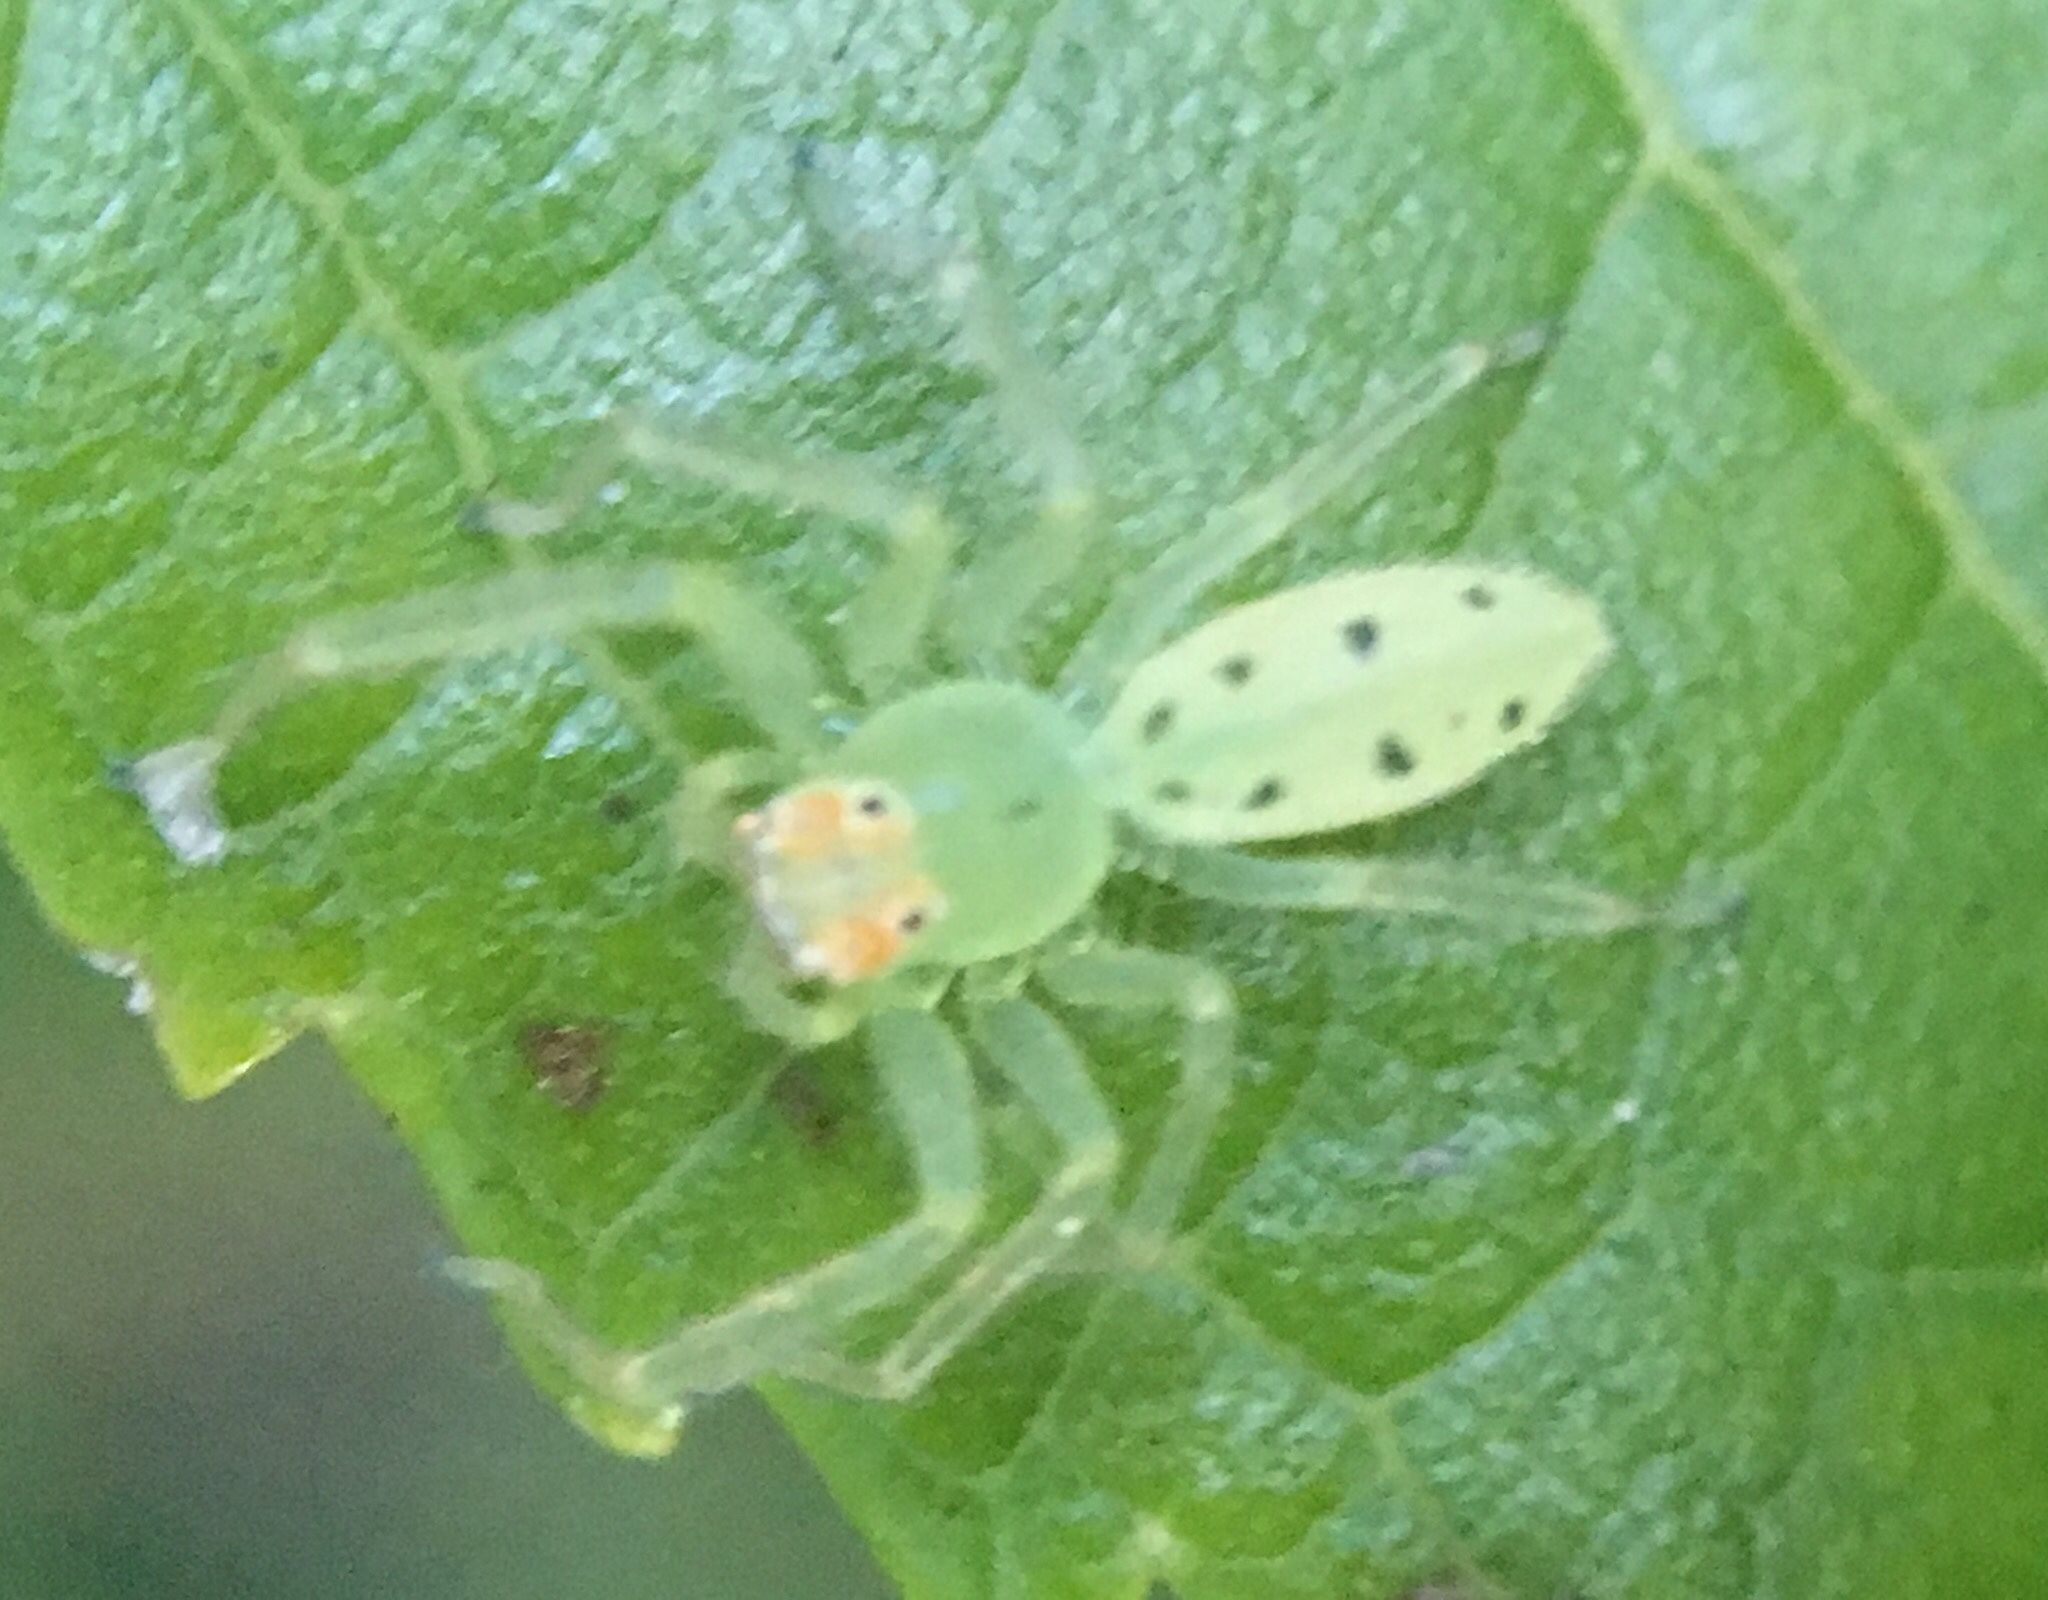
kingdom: Animalia
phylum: Arthropoda
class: Arachnida
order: Araneae
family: Salticidae
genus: Lyssomanes
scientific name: Lyssomanes viridis
